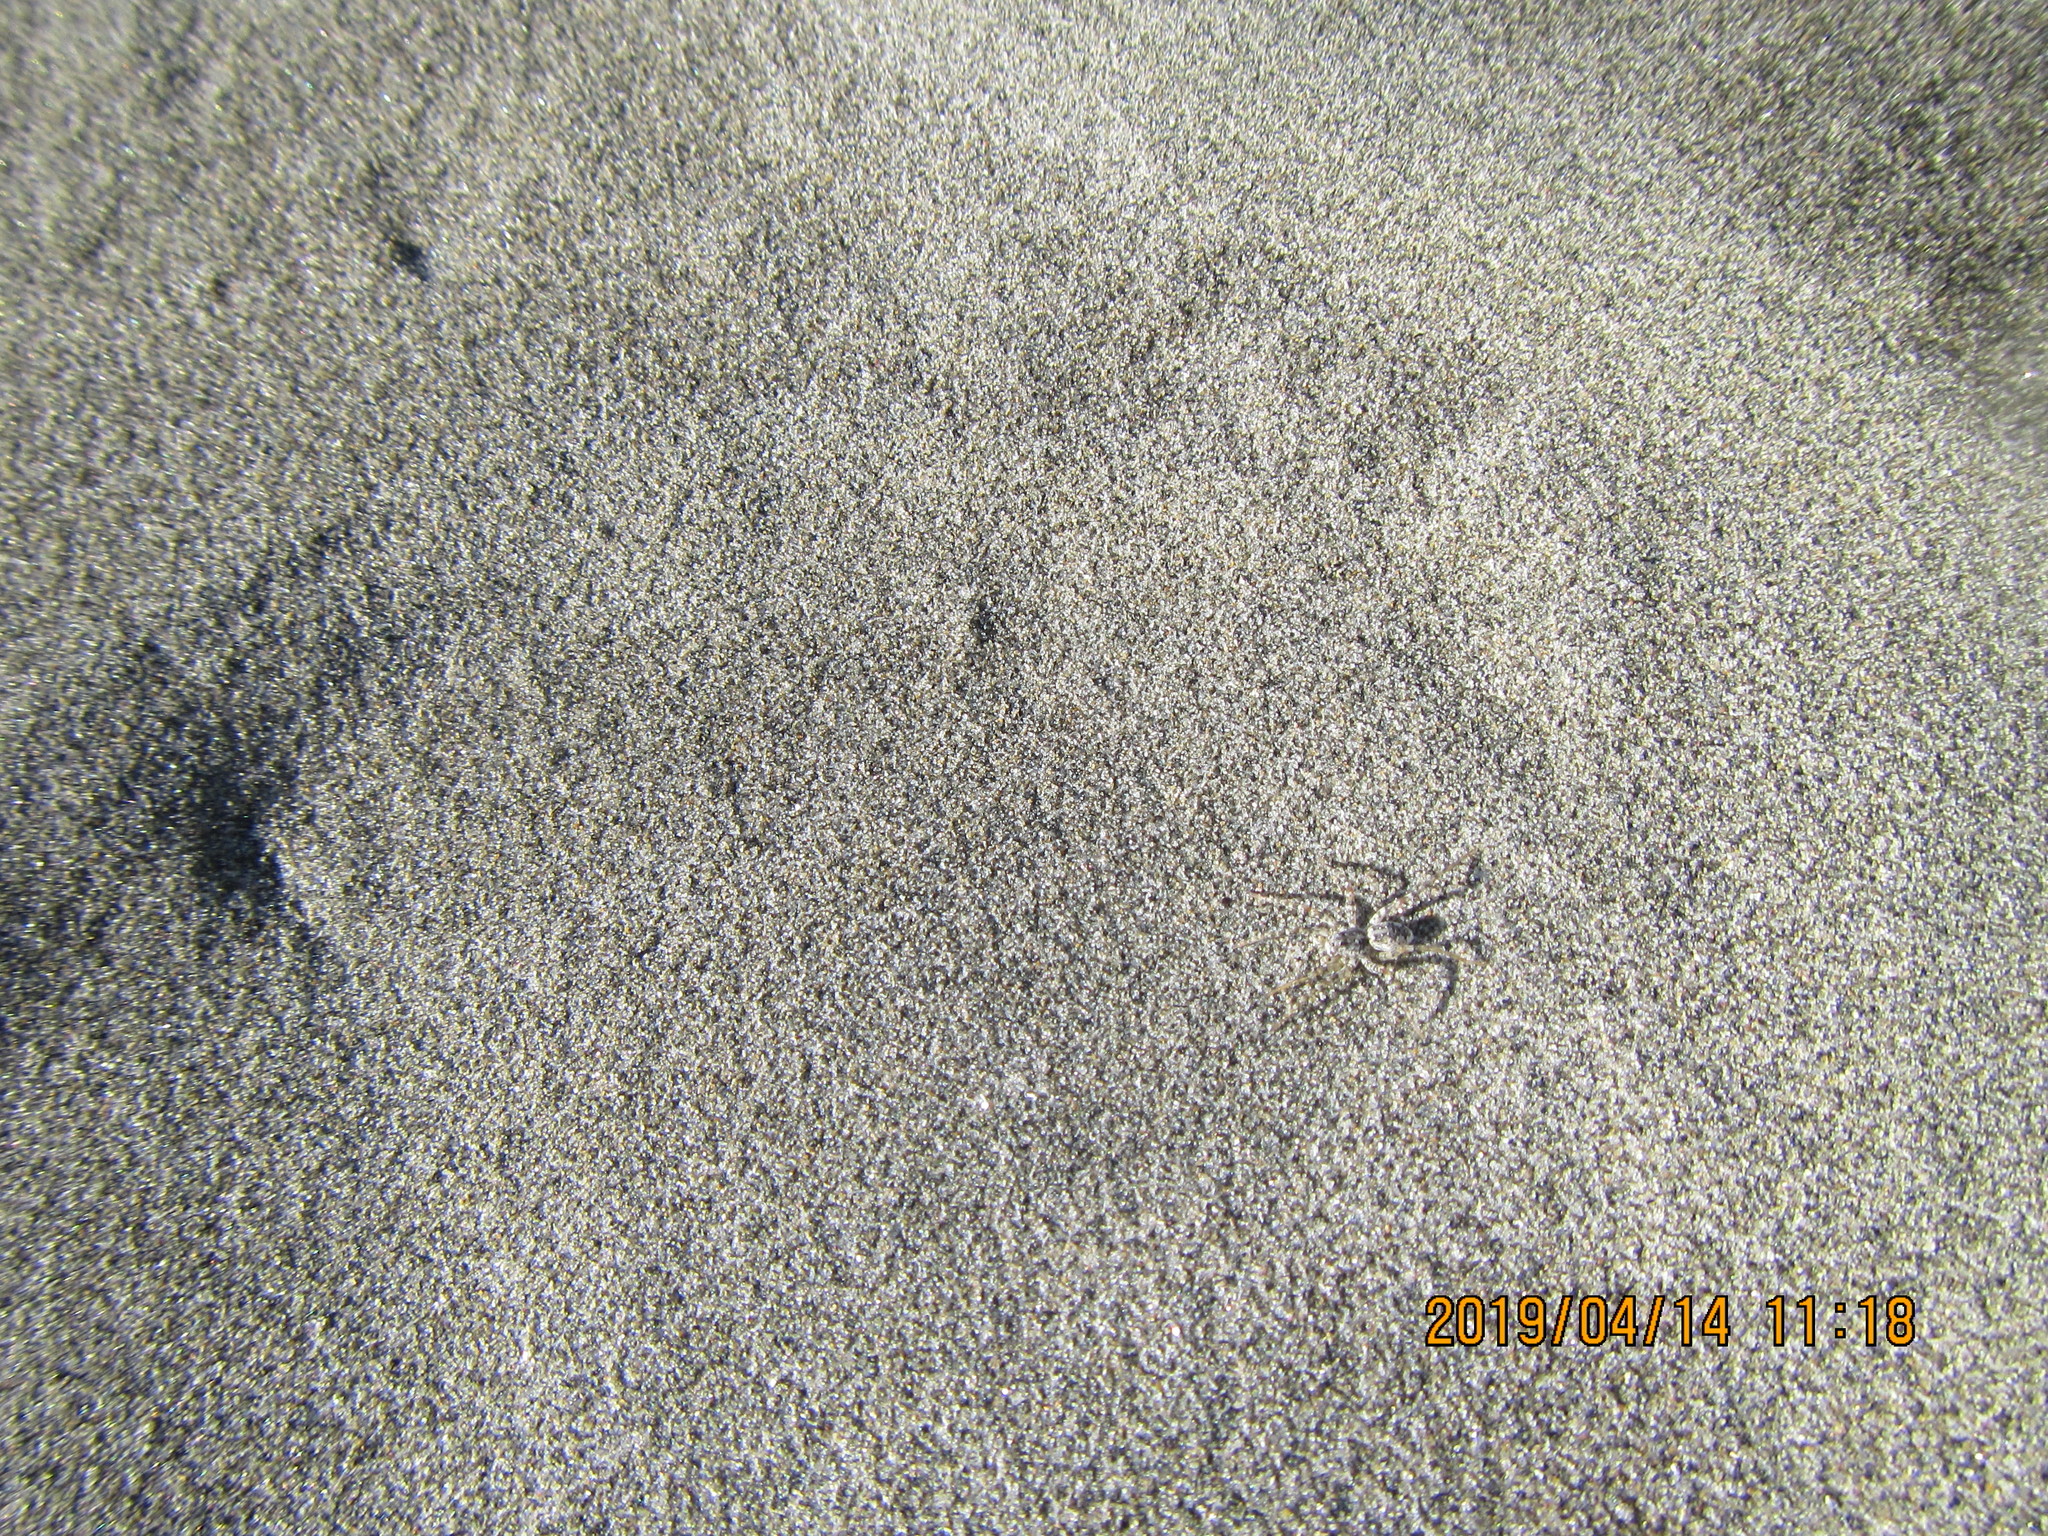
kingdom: Animalia
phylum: Arthropoda
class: Arachnida
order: Araneae
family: Lycosidae
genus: Anoteropsis
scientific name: Anoteropsis litoralis
